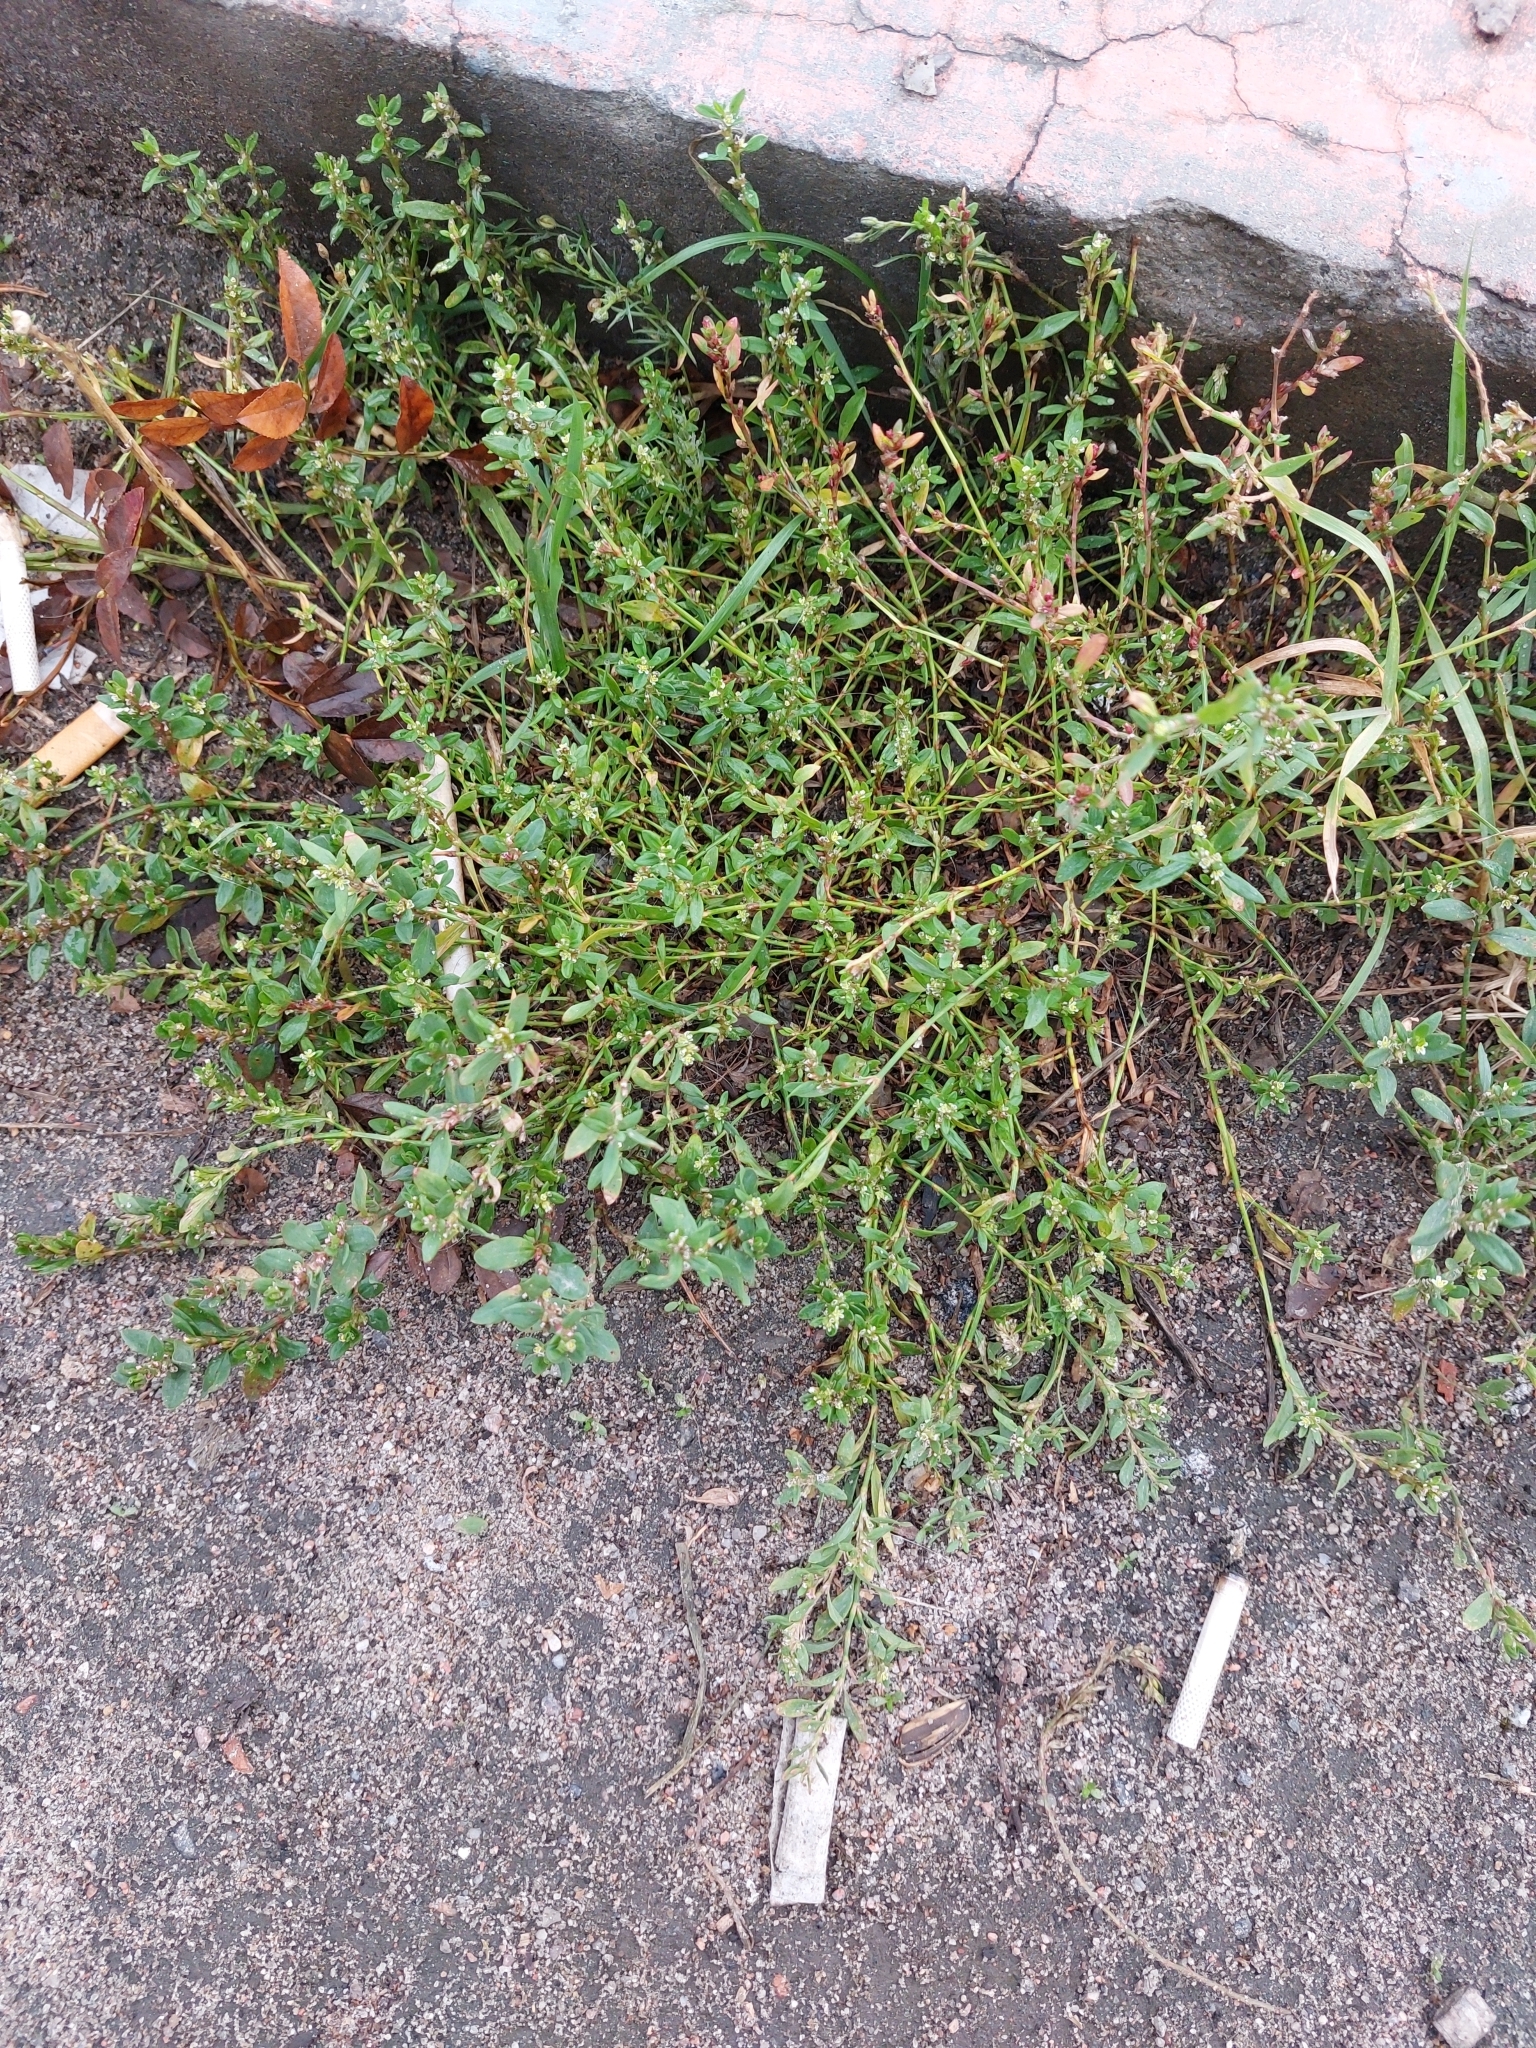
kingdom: Plantae
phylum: Tracheophyta
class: Magnoliopsida
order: Caryophyllales
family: Polygonaceae
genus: Polygonum
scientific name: Polygonum
